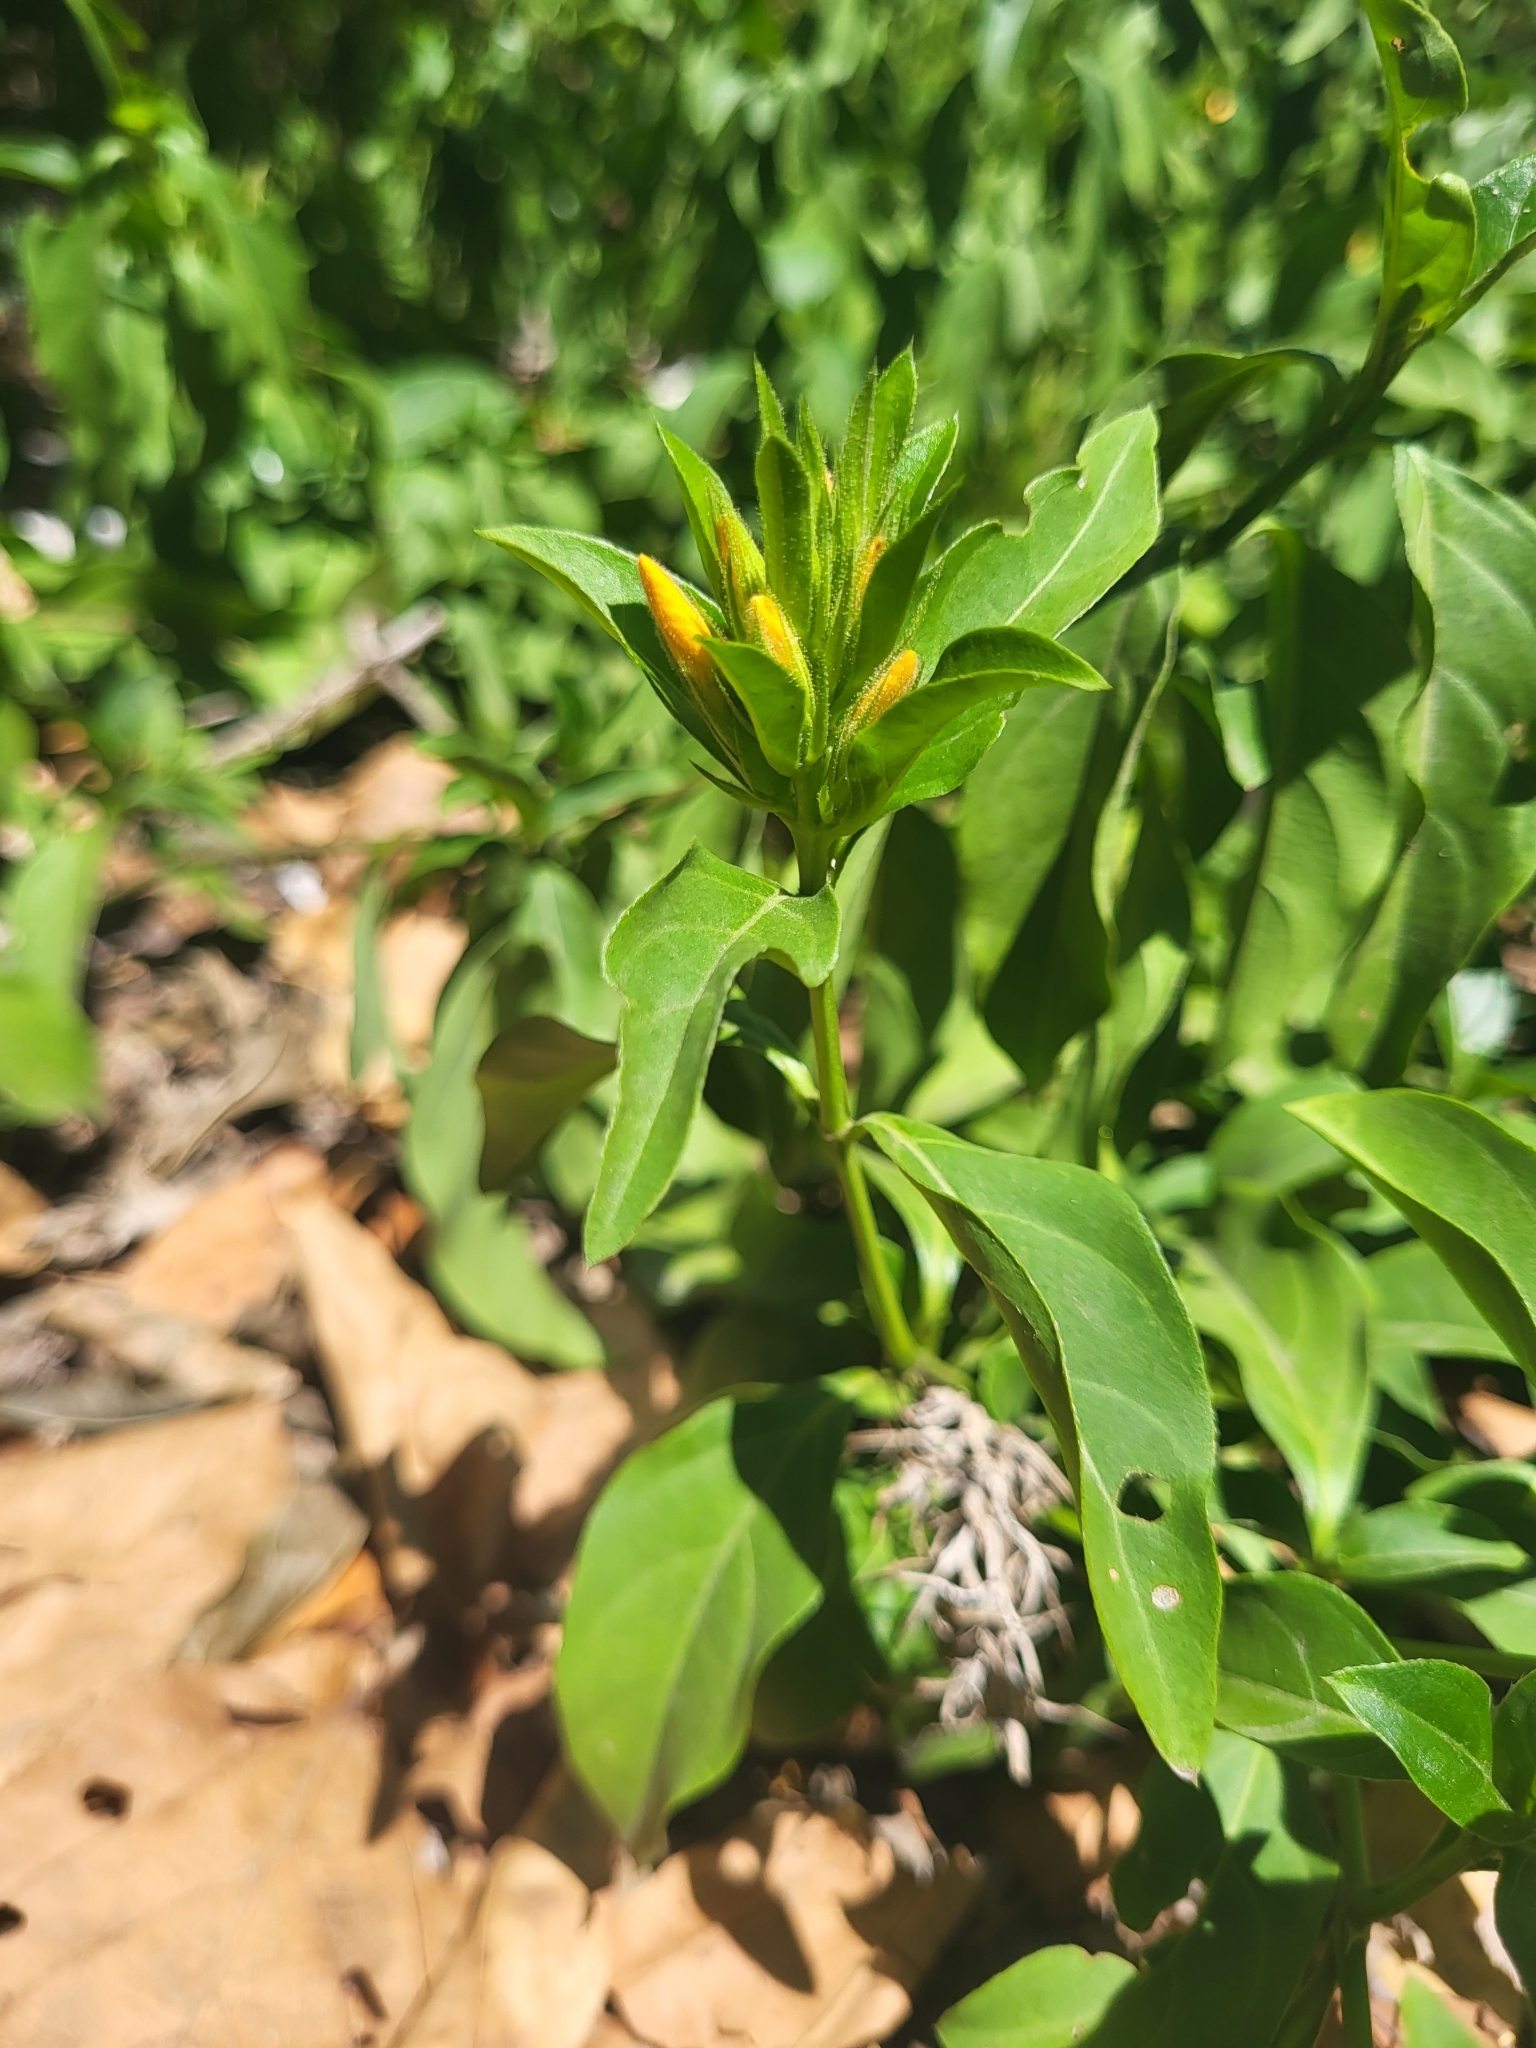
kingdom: Plantae
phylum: Tracheophyta
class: Magnoliopsida
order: Lamiales
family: Acanthaceae
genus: Barleria
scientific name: Barleria faulknerae
